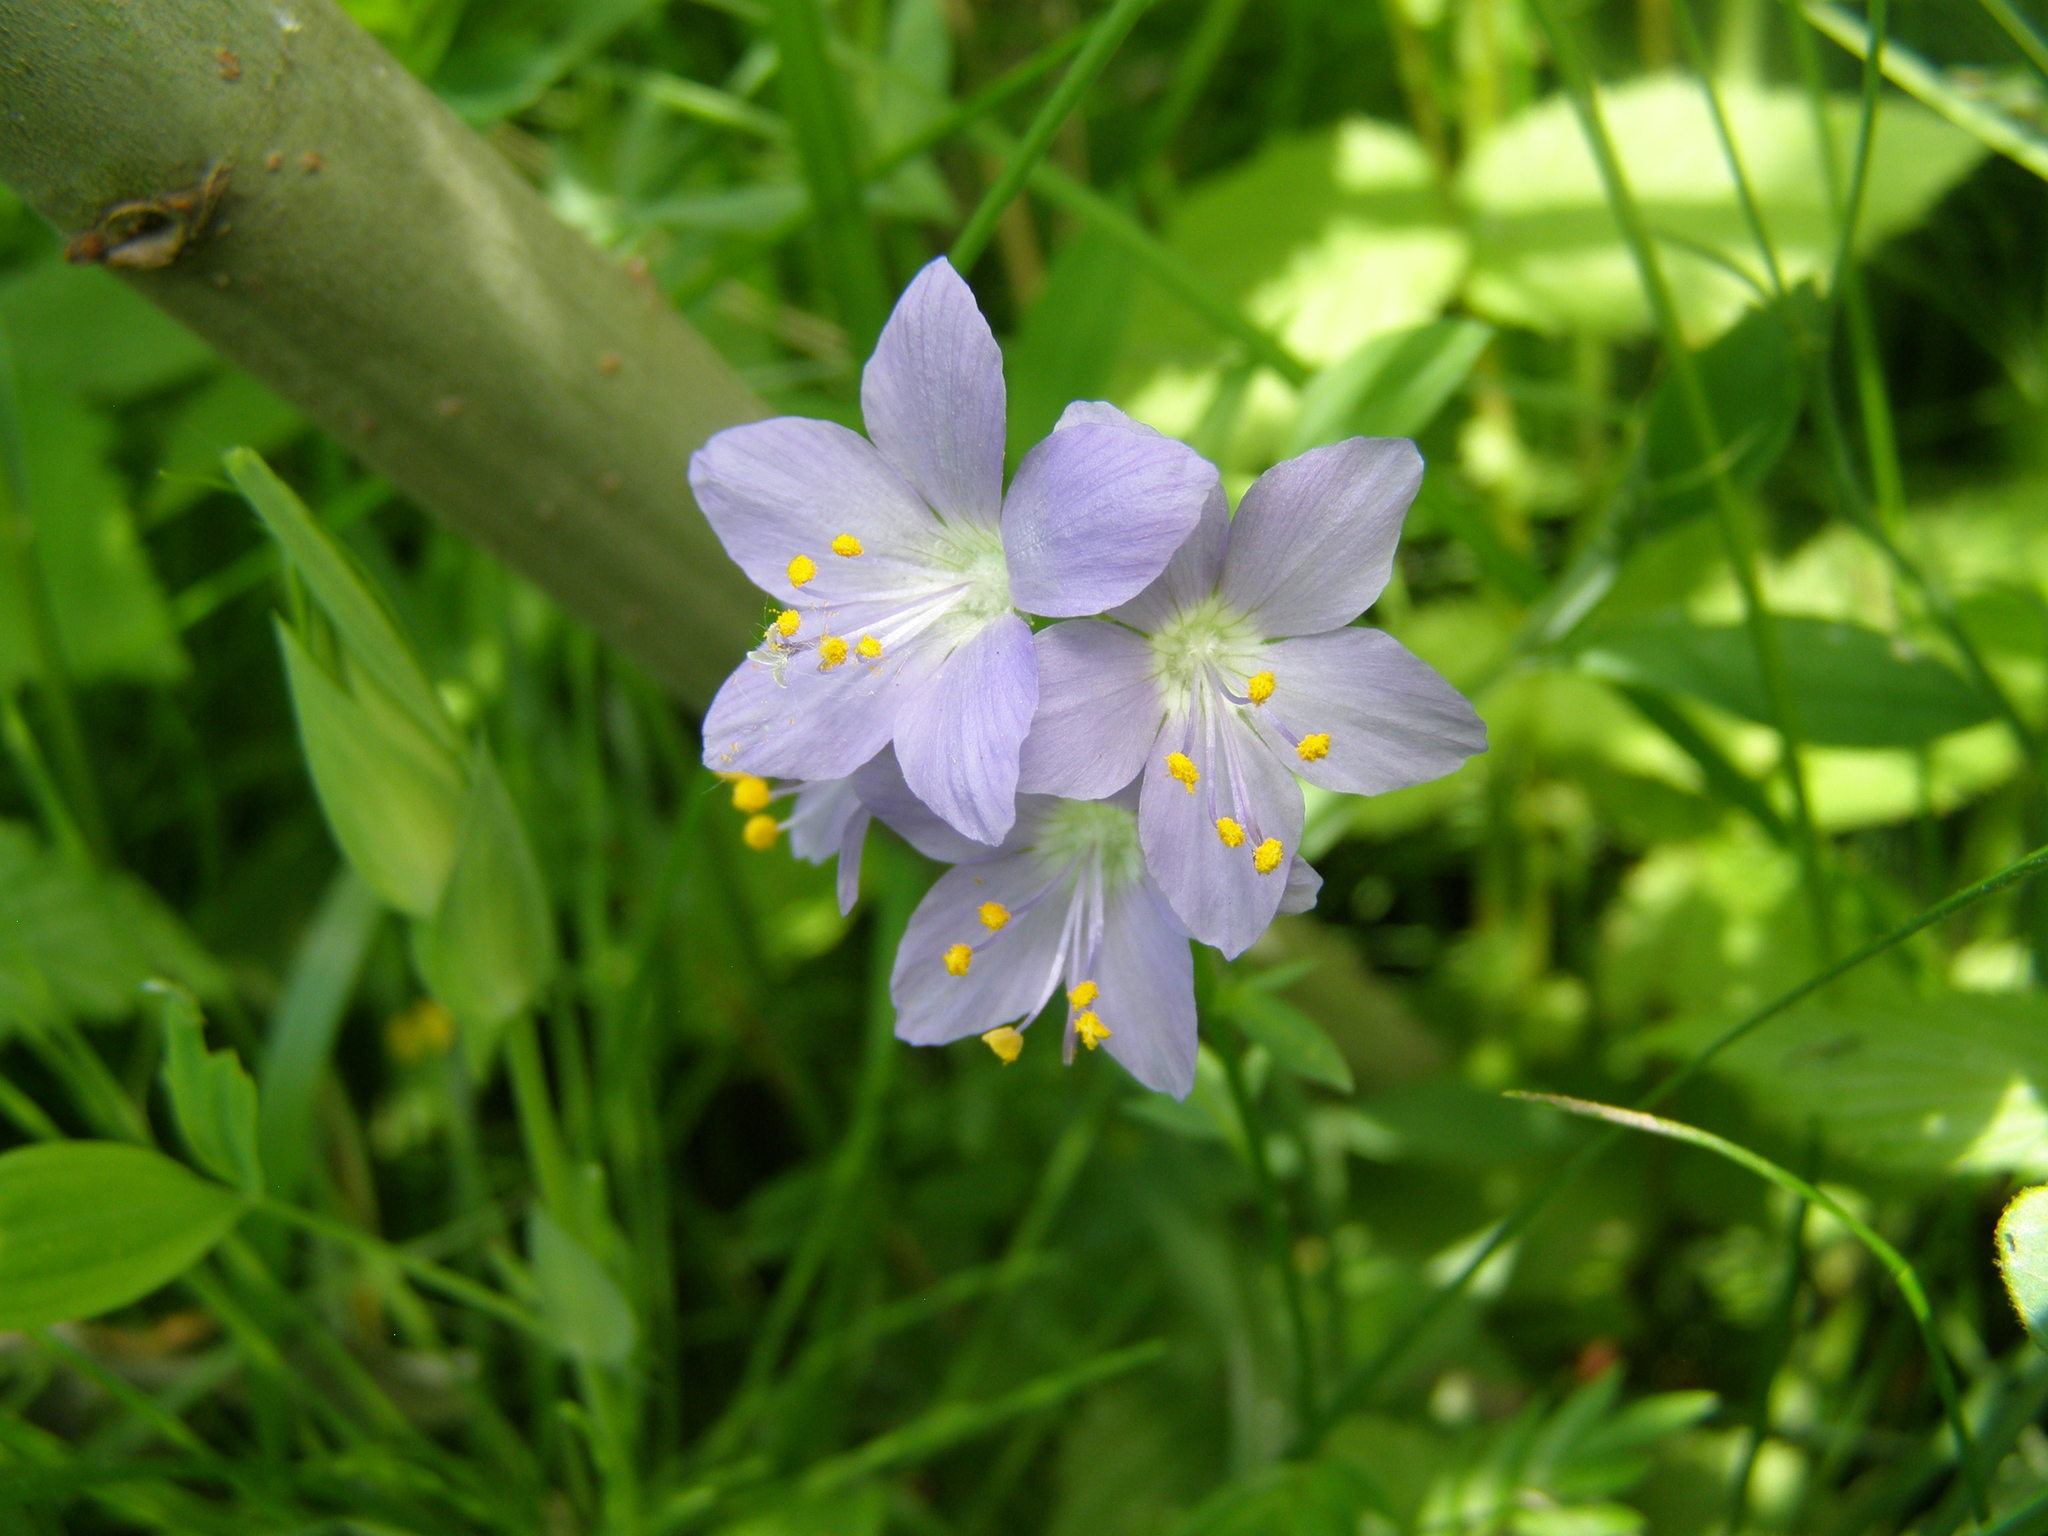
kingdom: Plantae
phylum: Tracheophyta
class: Magnoliopsida
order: Ericales
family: Polemoniaceae
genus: Polemonium
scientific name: Polemonium caeruleum
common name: Jacob's-ladder
